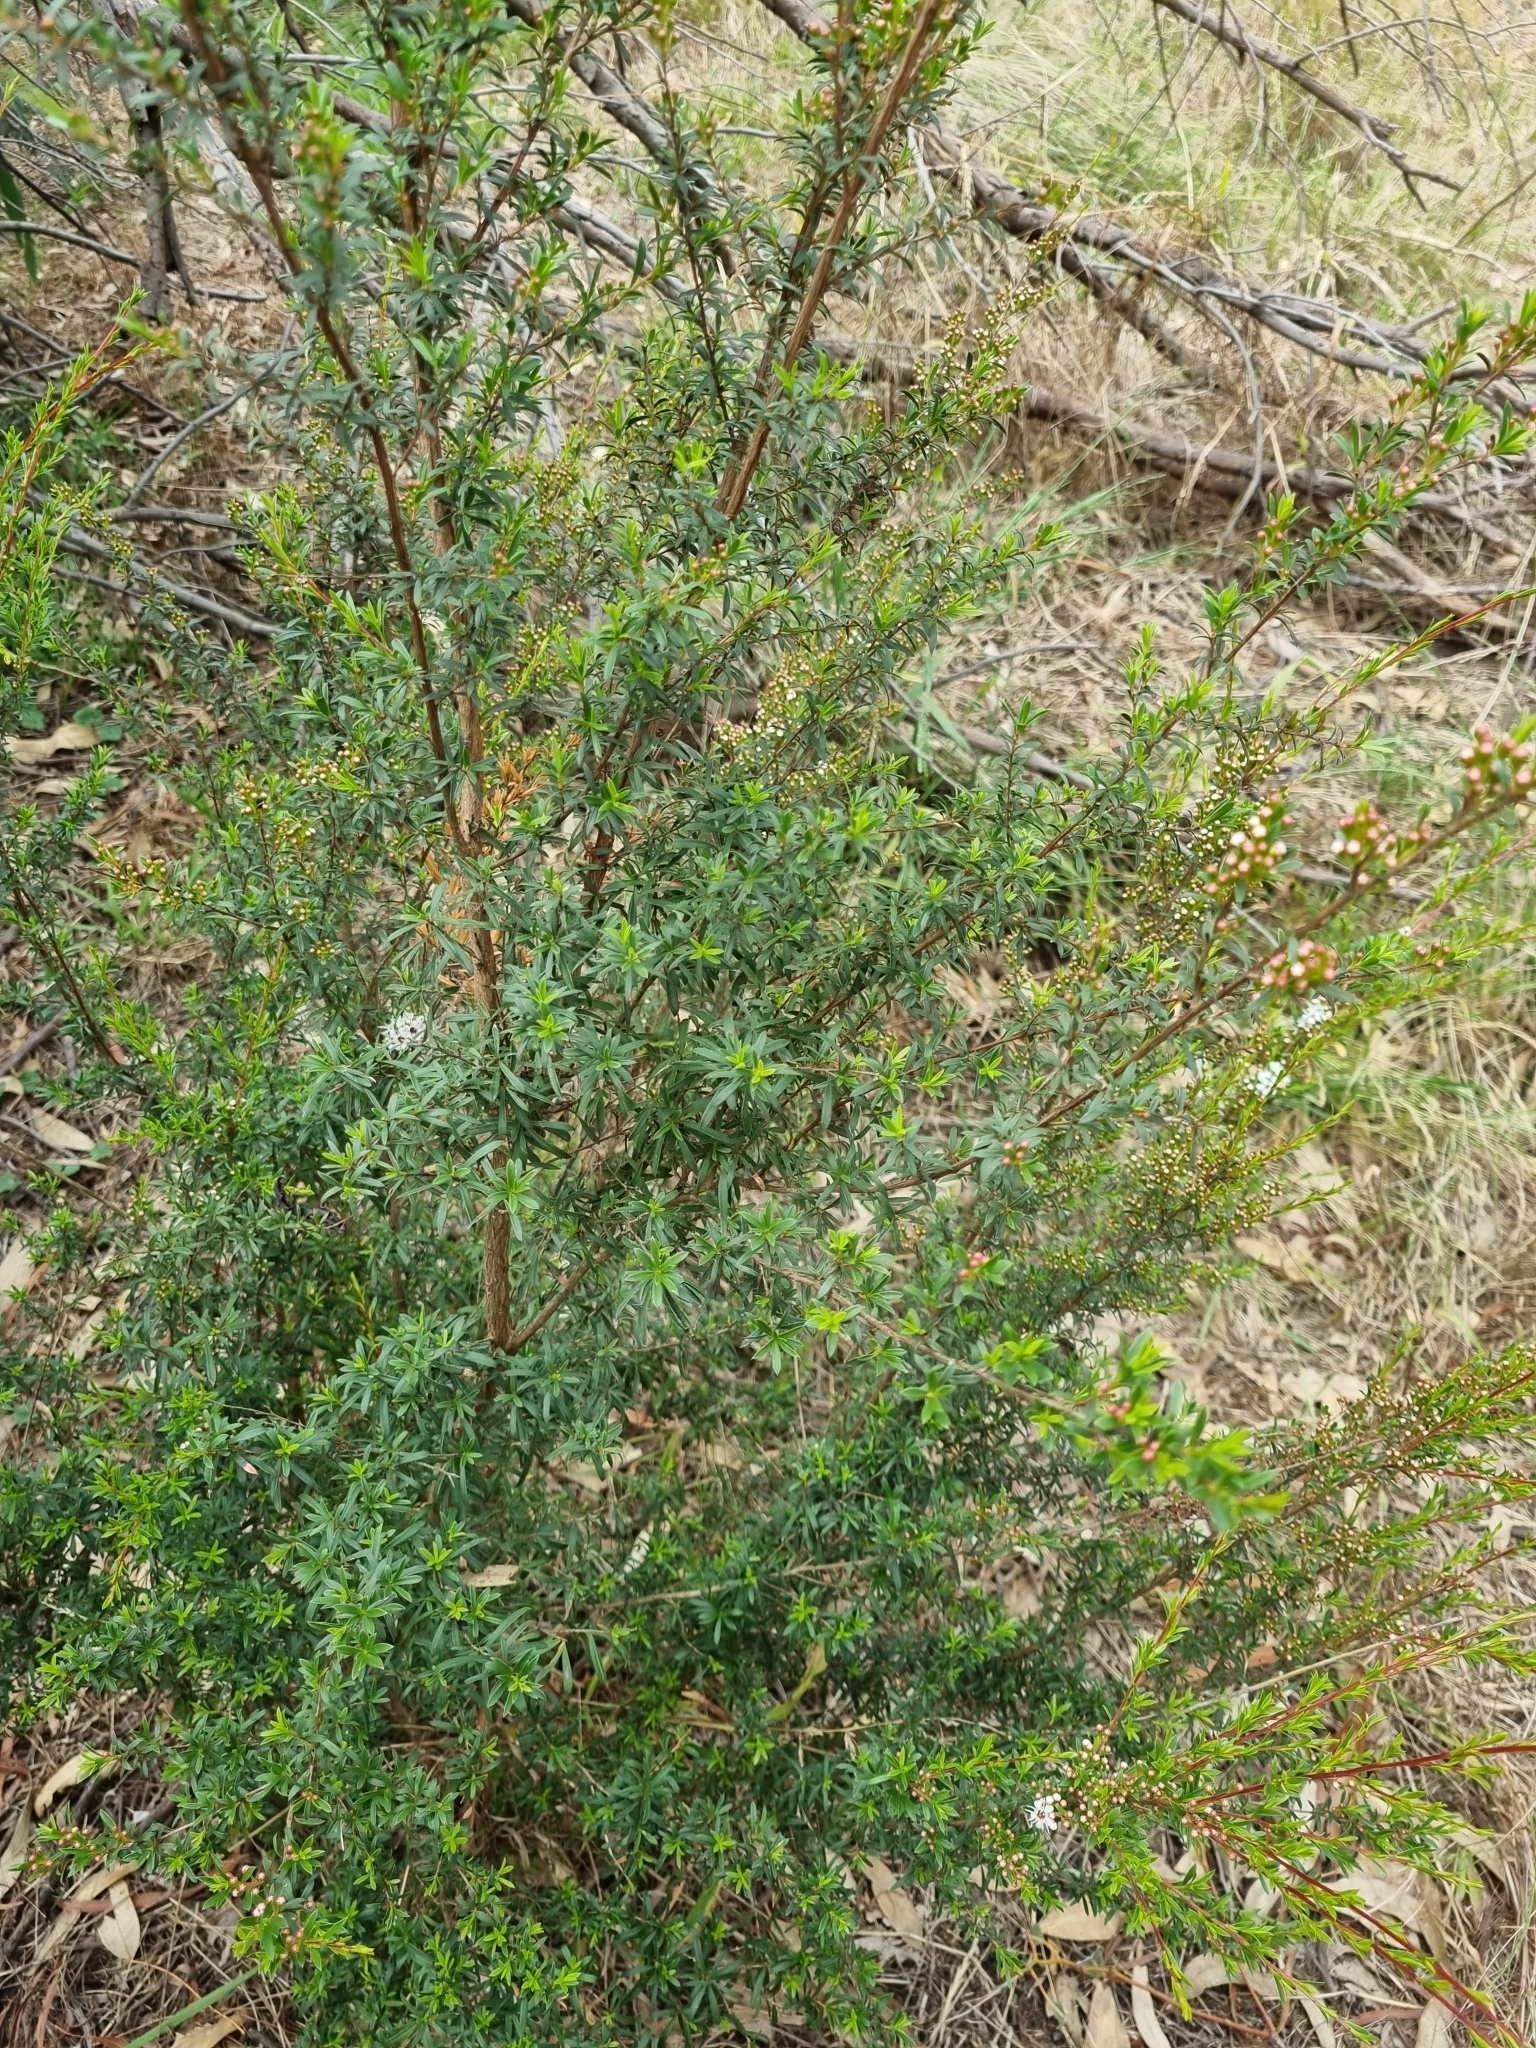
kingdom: Plantae
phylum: Tracheophyta
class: Magnoliopsida
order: Myrtales
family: Myrtaceae
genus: Kunzea
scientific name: Kunzea leptospermoides
